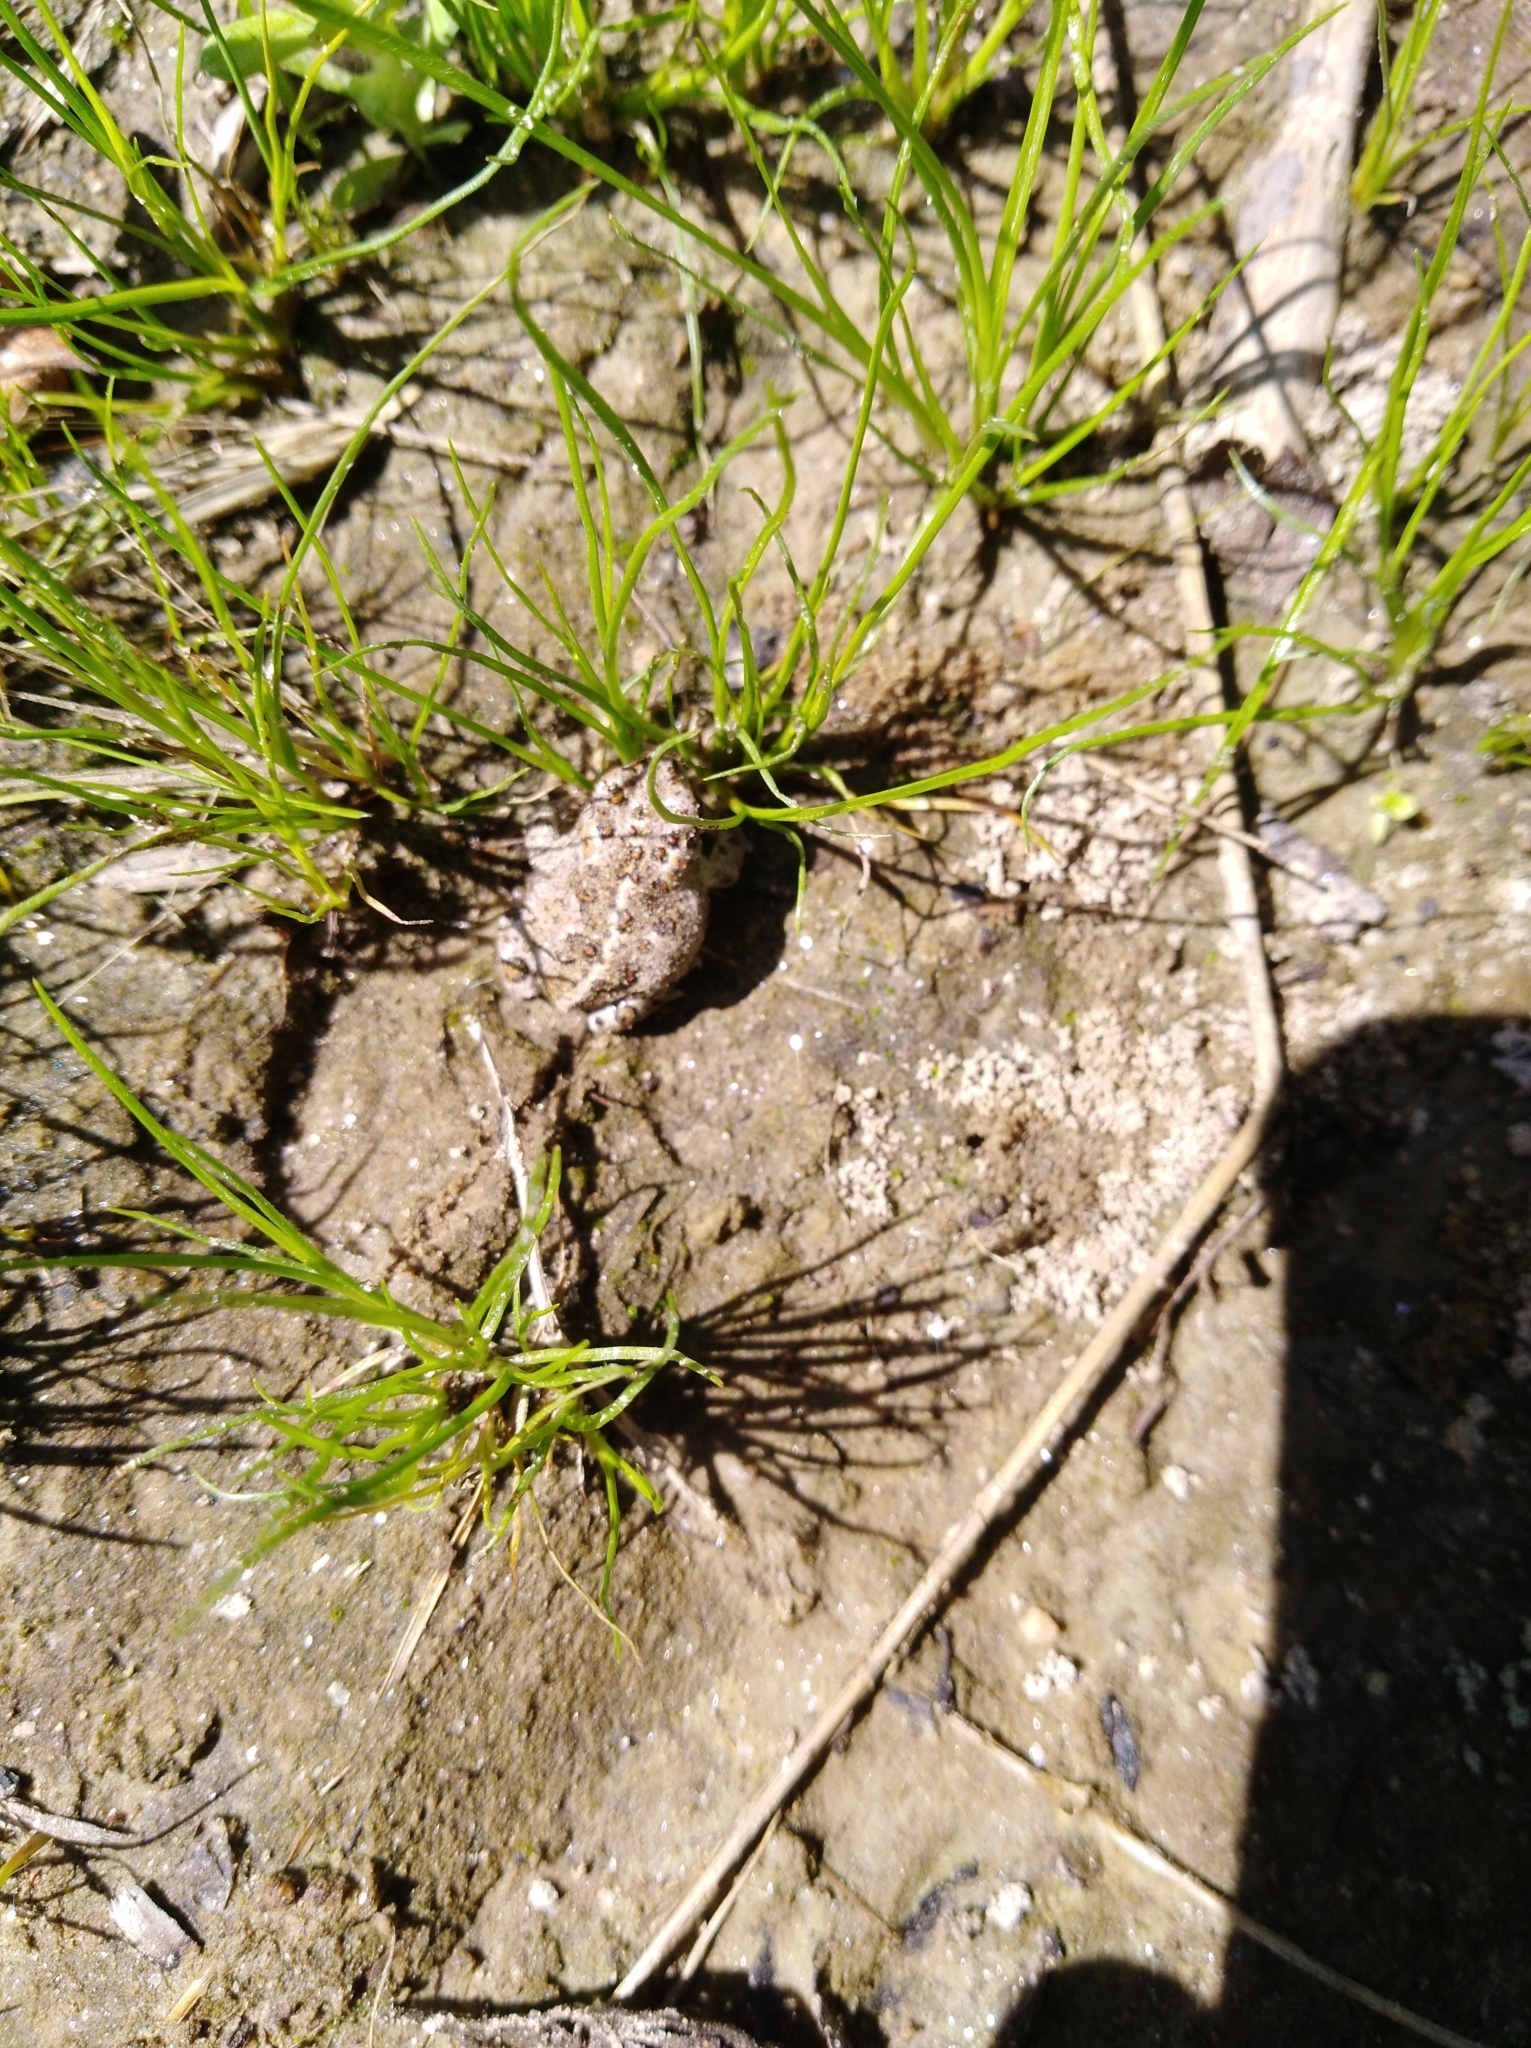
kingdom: Animalia
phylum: Chordata
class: Amphibia
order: Anura
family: Bufonidae
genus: Epidalea
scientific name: Epidalea calamita
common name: Natterjack toad
